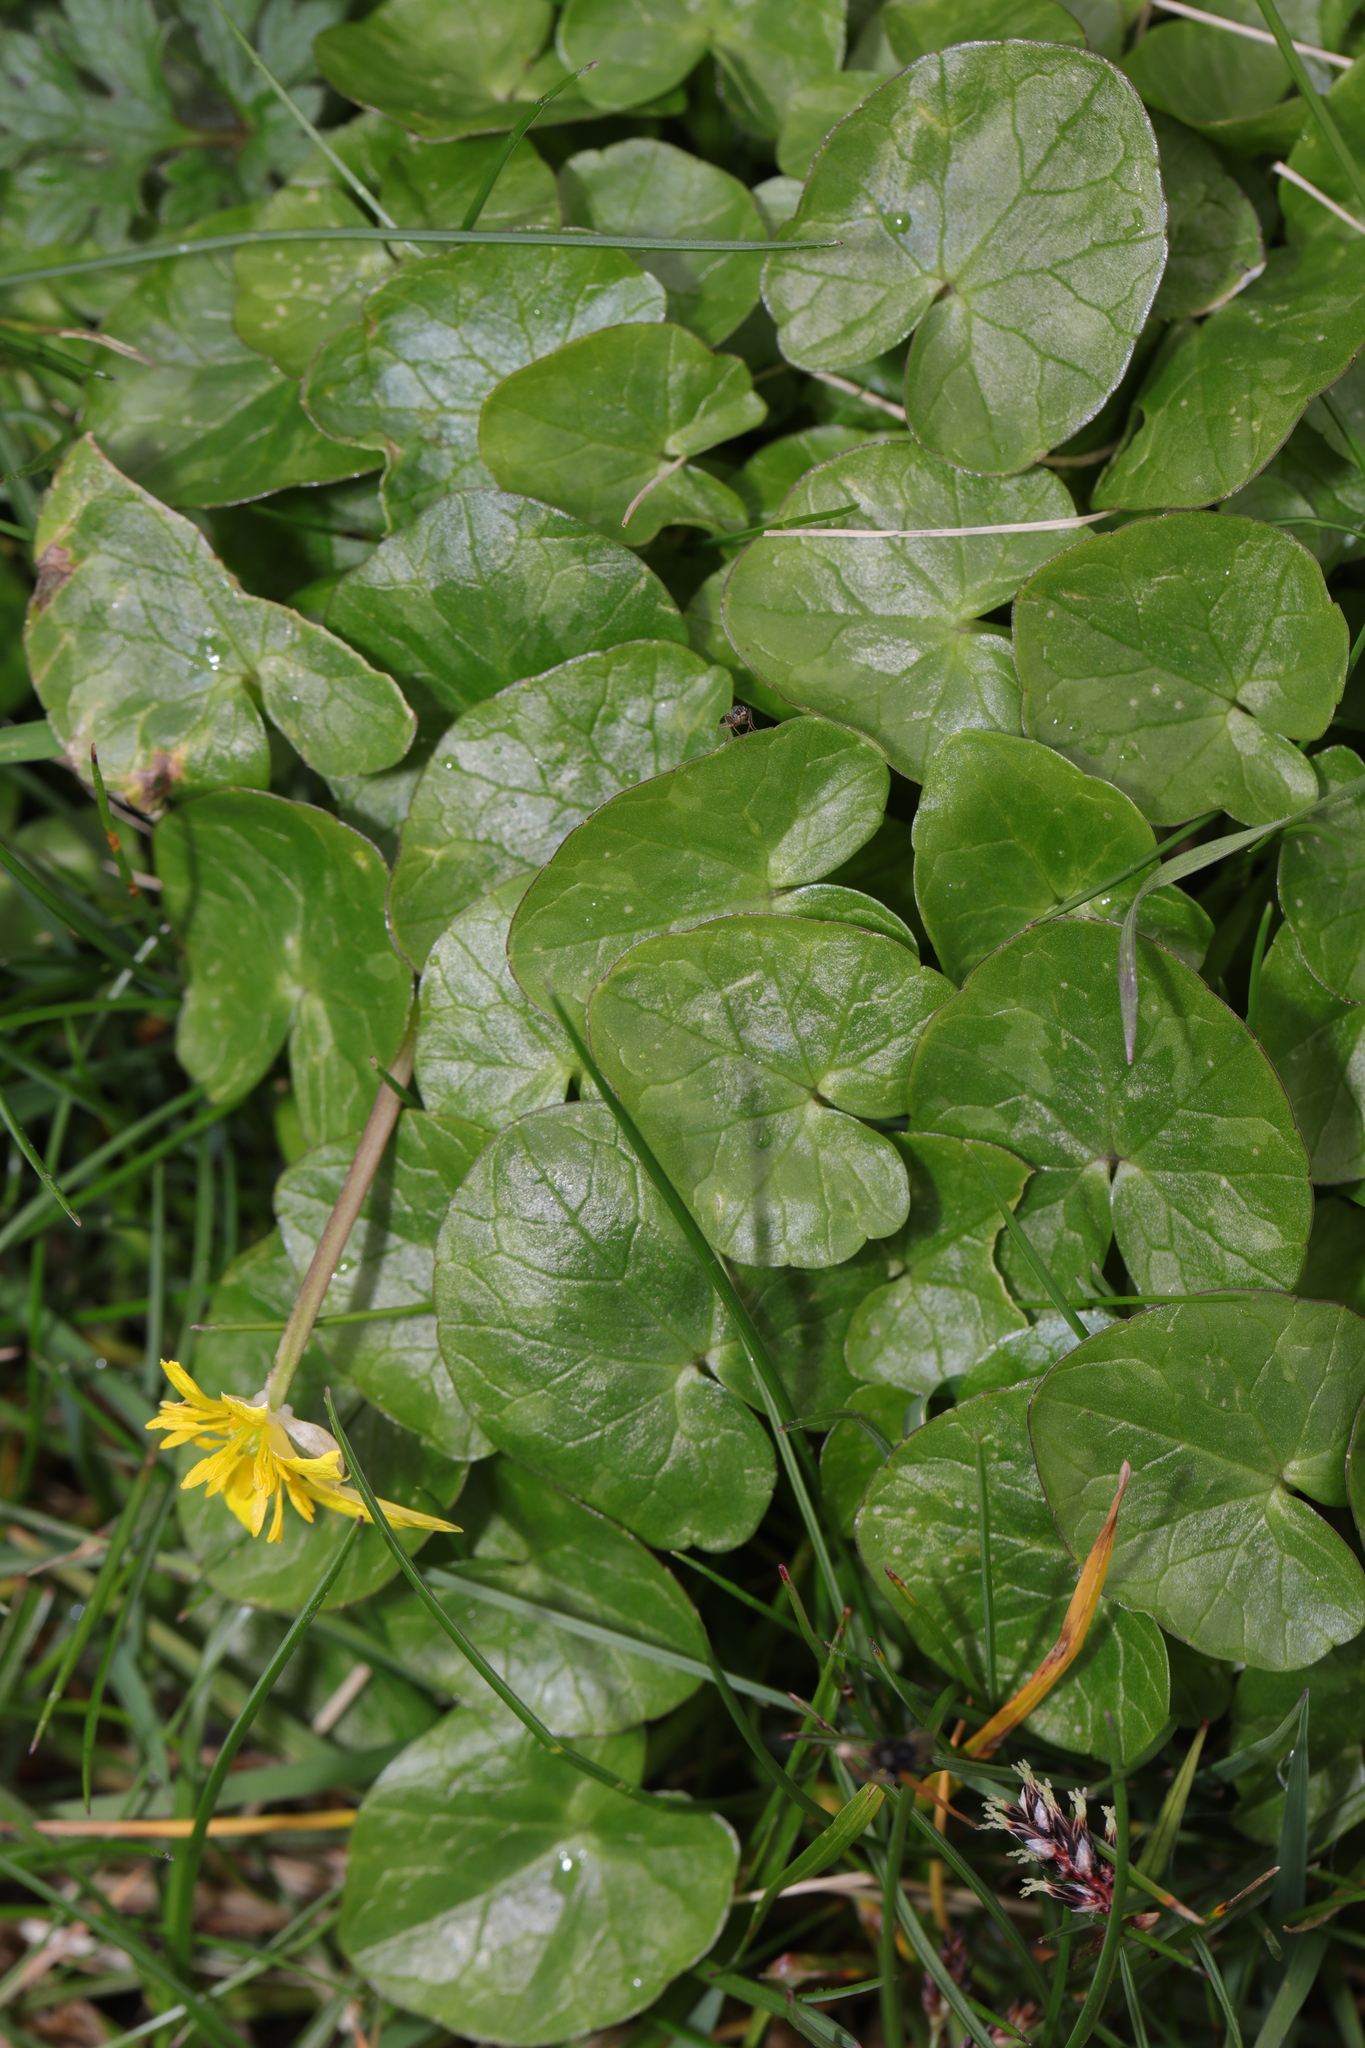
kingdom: Plantae
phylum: Tracheophyta
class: Magnoliopsida
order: Ranunculales
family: Ranunculaceae
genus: Ficaria
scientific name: Ficaria verna
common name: Lesser celandine
